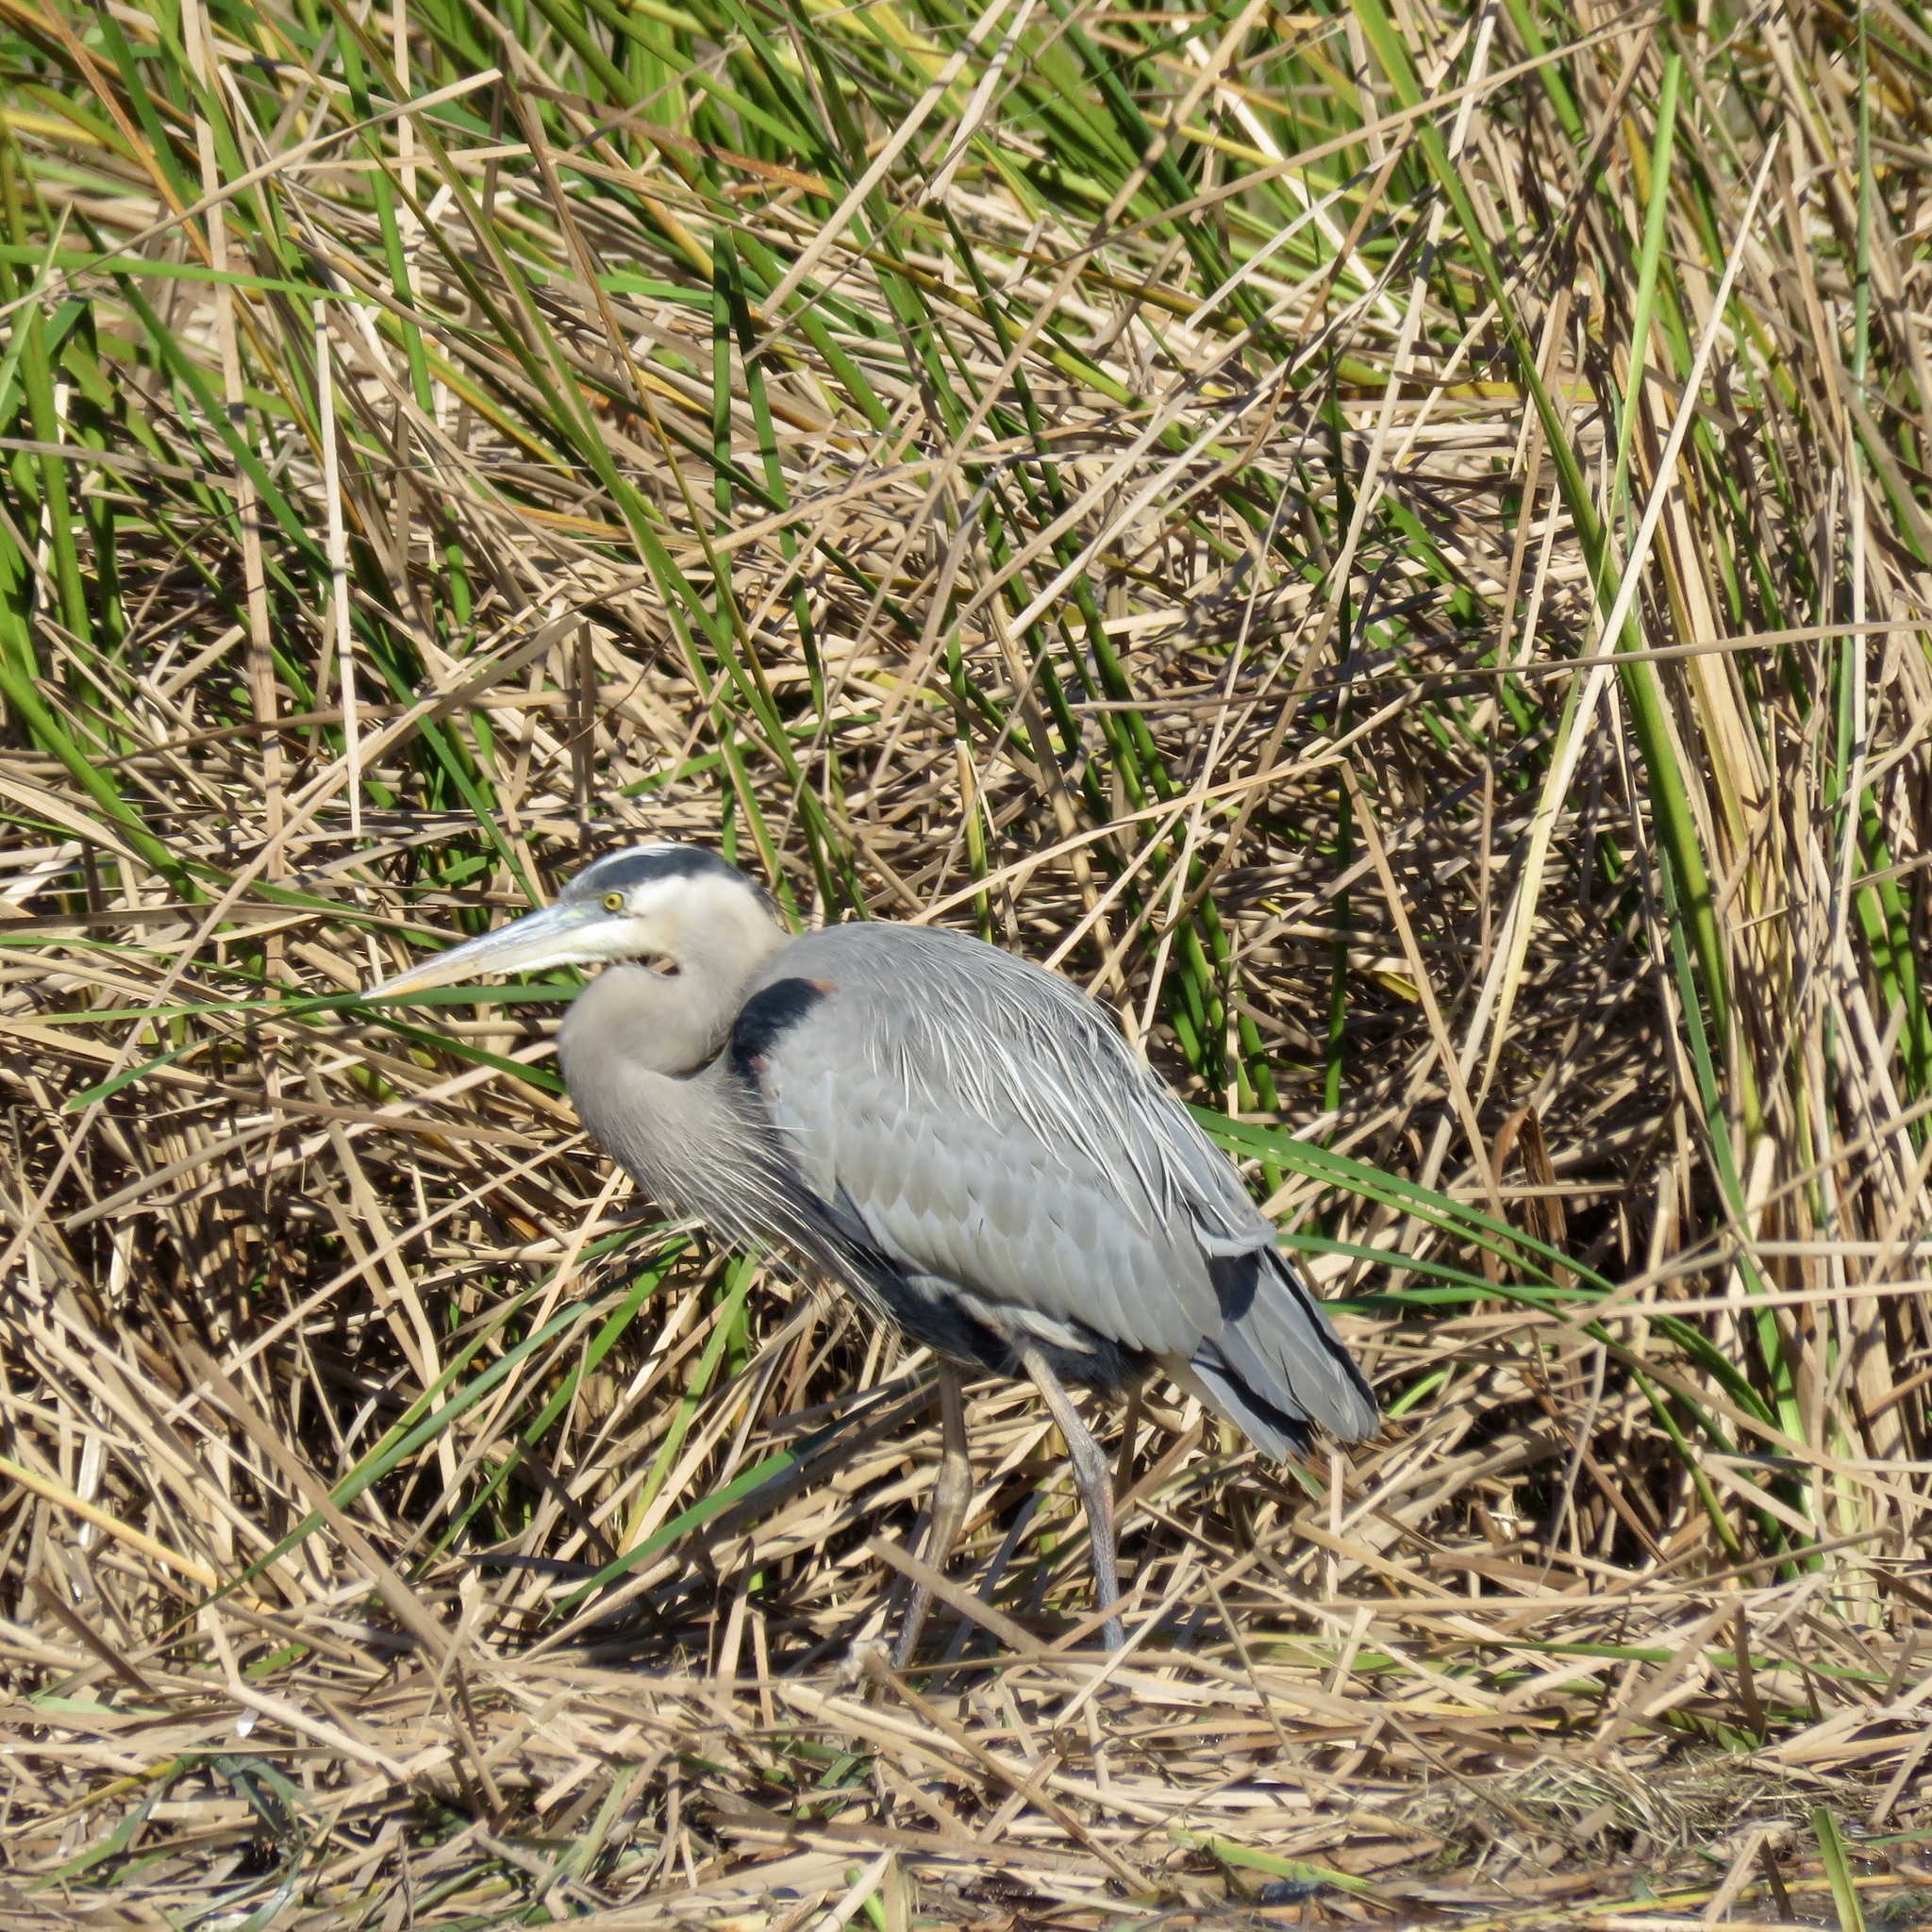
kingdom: Animalia
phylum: Chordata
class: Aves
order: Pelecaniformes
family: Ardeidae
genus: Ardea
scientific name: Ardea herodias
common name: Great blue heron
